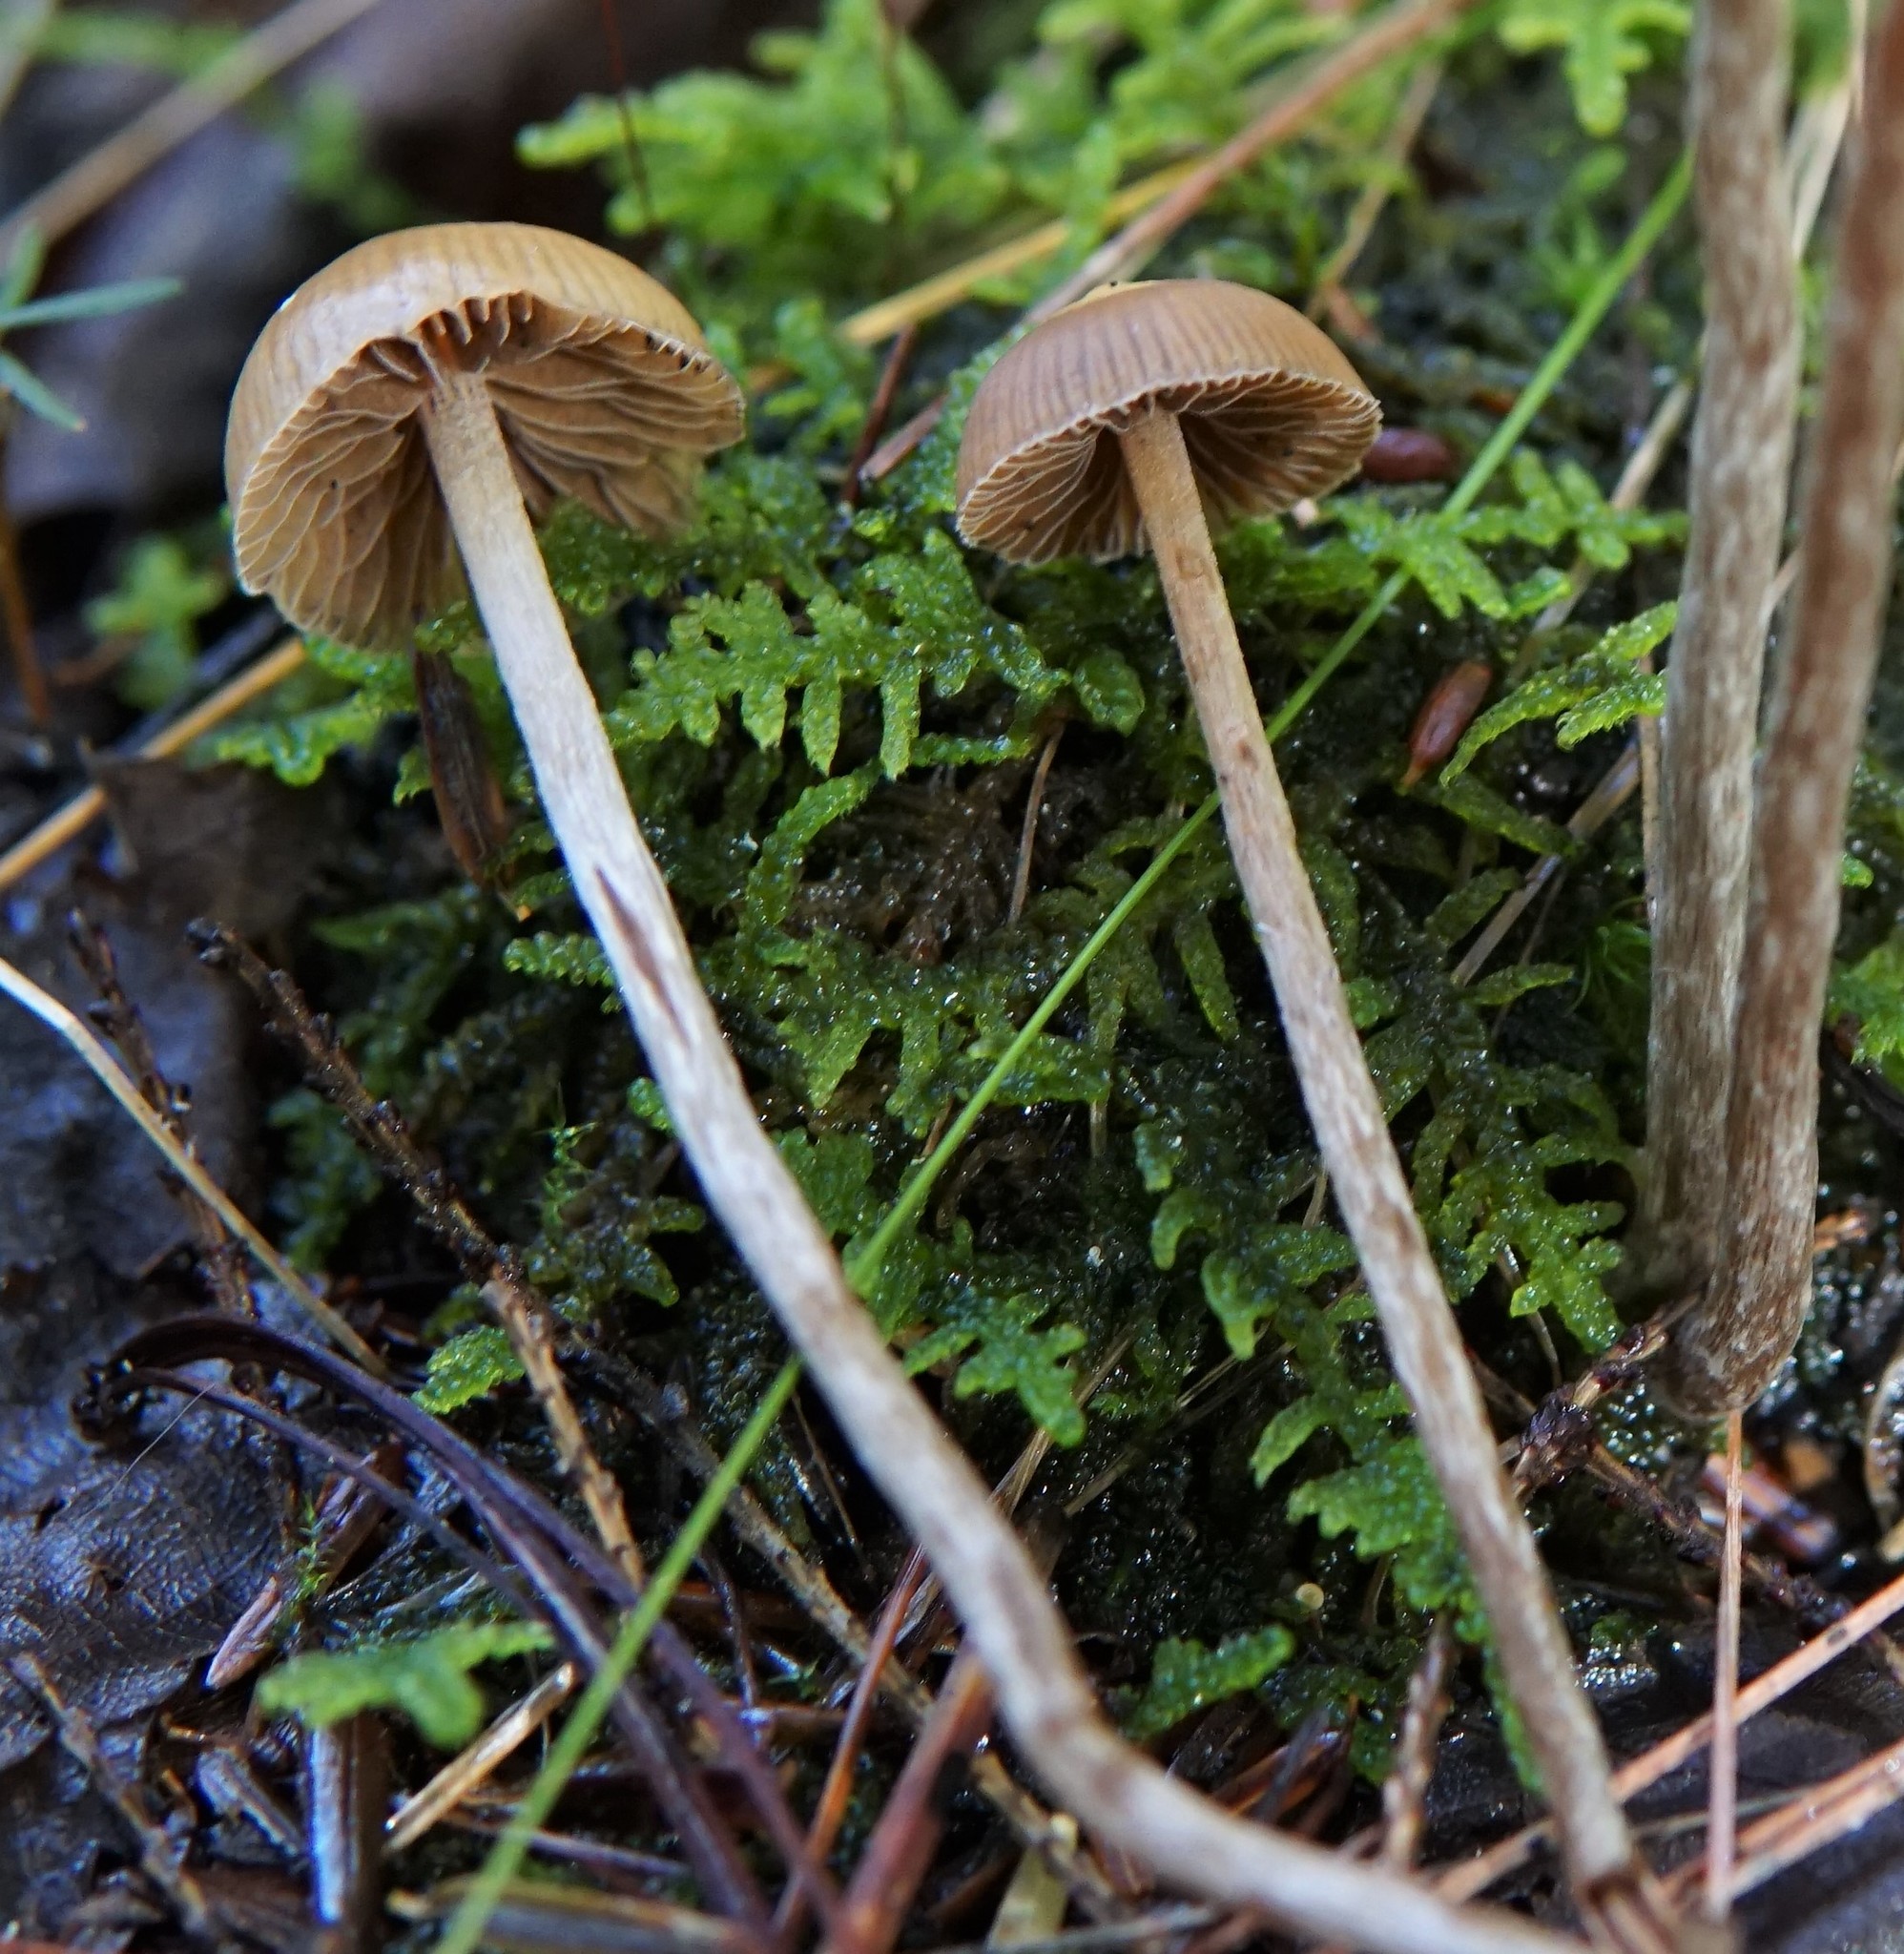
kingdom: Fungi
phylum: Basidiomycota
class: Agaricomycetes
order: Agaricales
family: Hymenogastraceae
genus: Psilocybe
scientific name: Psilocybe fuscofulva
